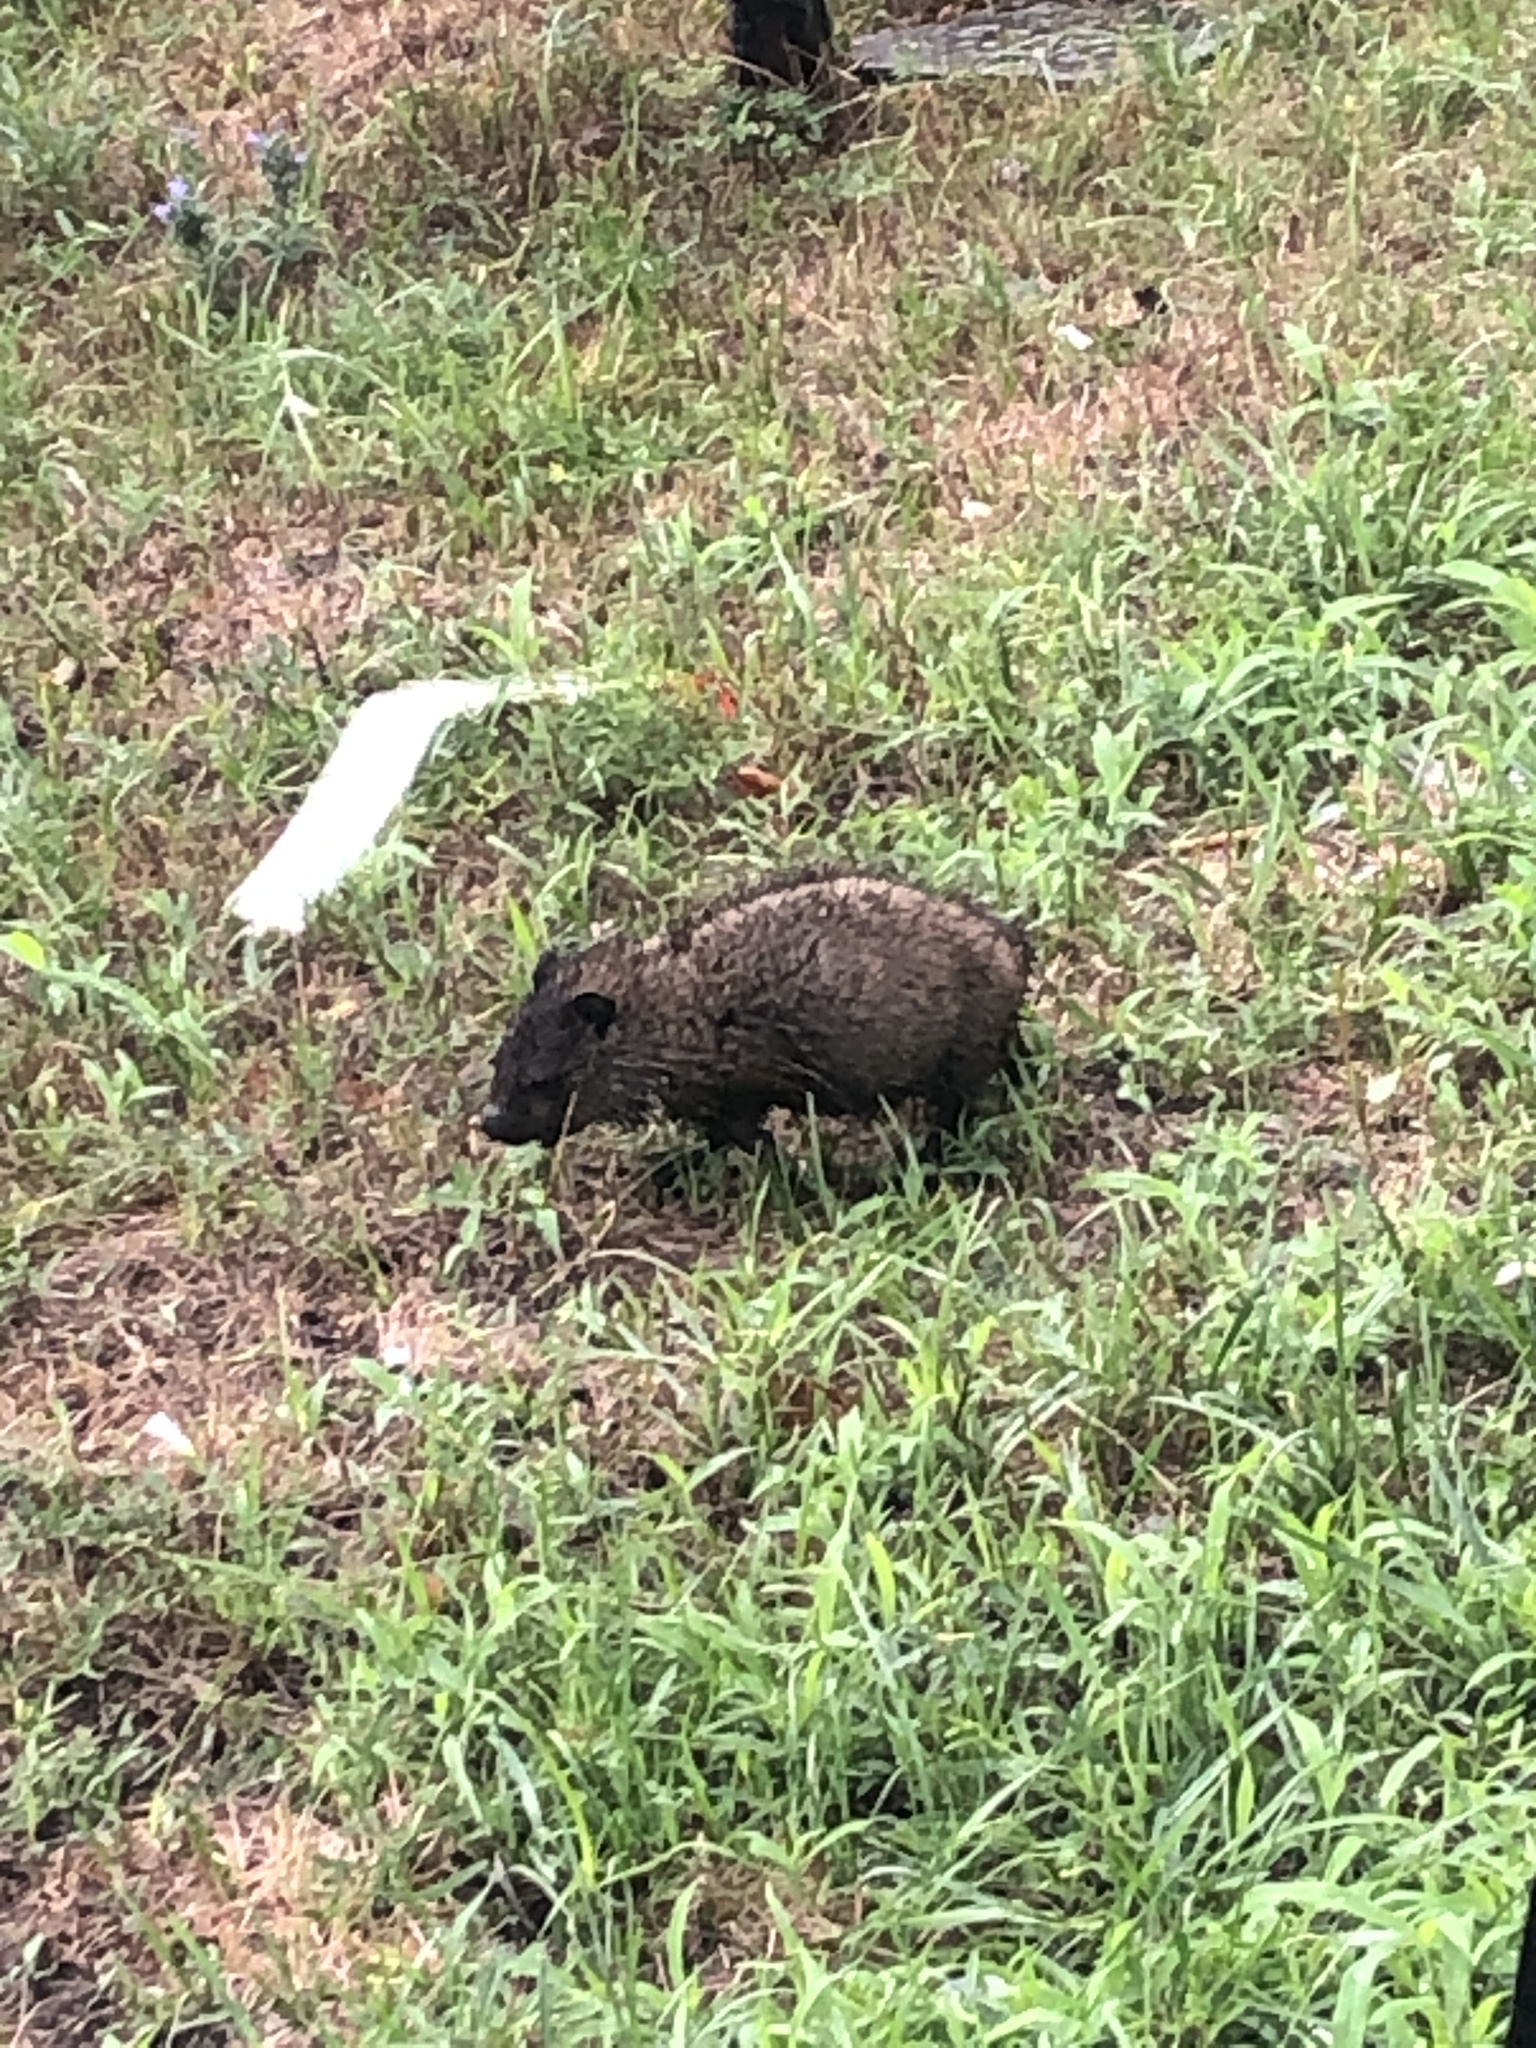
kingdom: Animalia
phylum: Chordata
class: Mammalia
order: Rodentia
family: Sciuridae
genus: Marmota
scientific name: Marmota monax
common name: Groundhog
